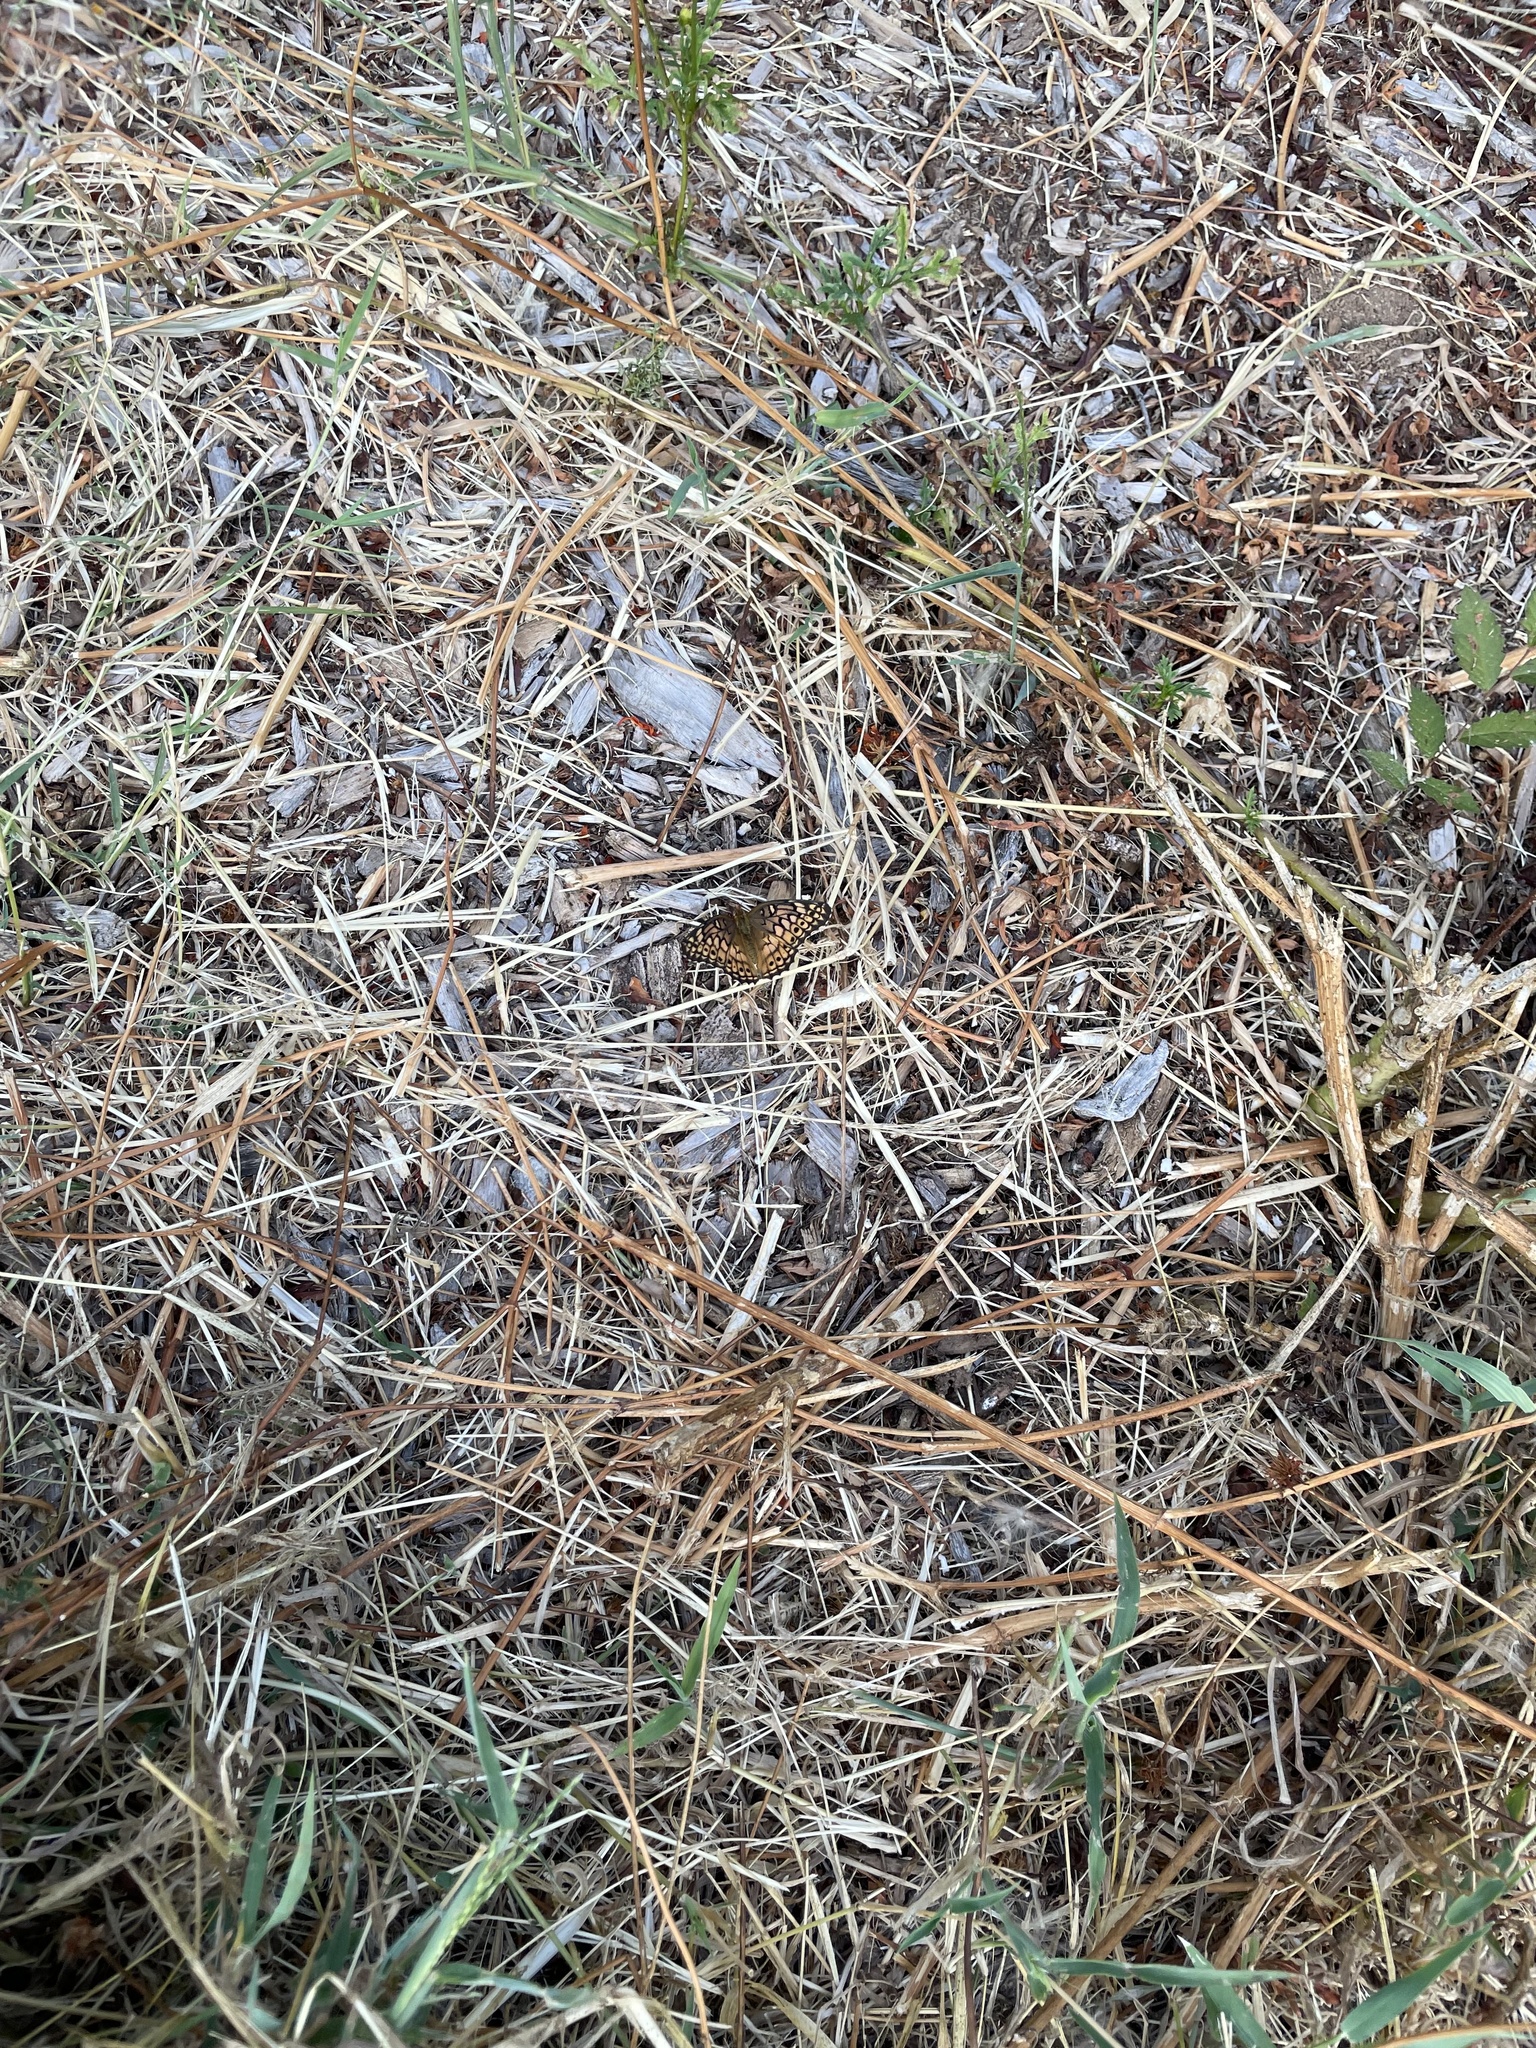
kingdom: Animalia
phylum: Arthropoda
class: Insecta
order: Lepidoptera
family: Nymphalidae
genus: Euptoieta
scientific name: Euptoieta claudia
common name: Variegated fritillary
